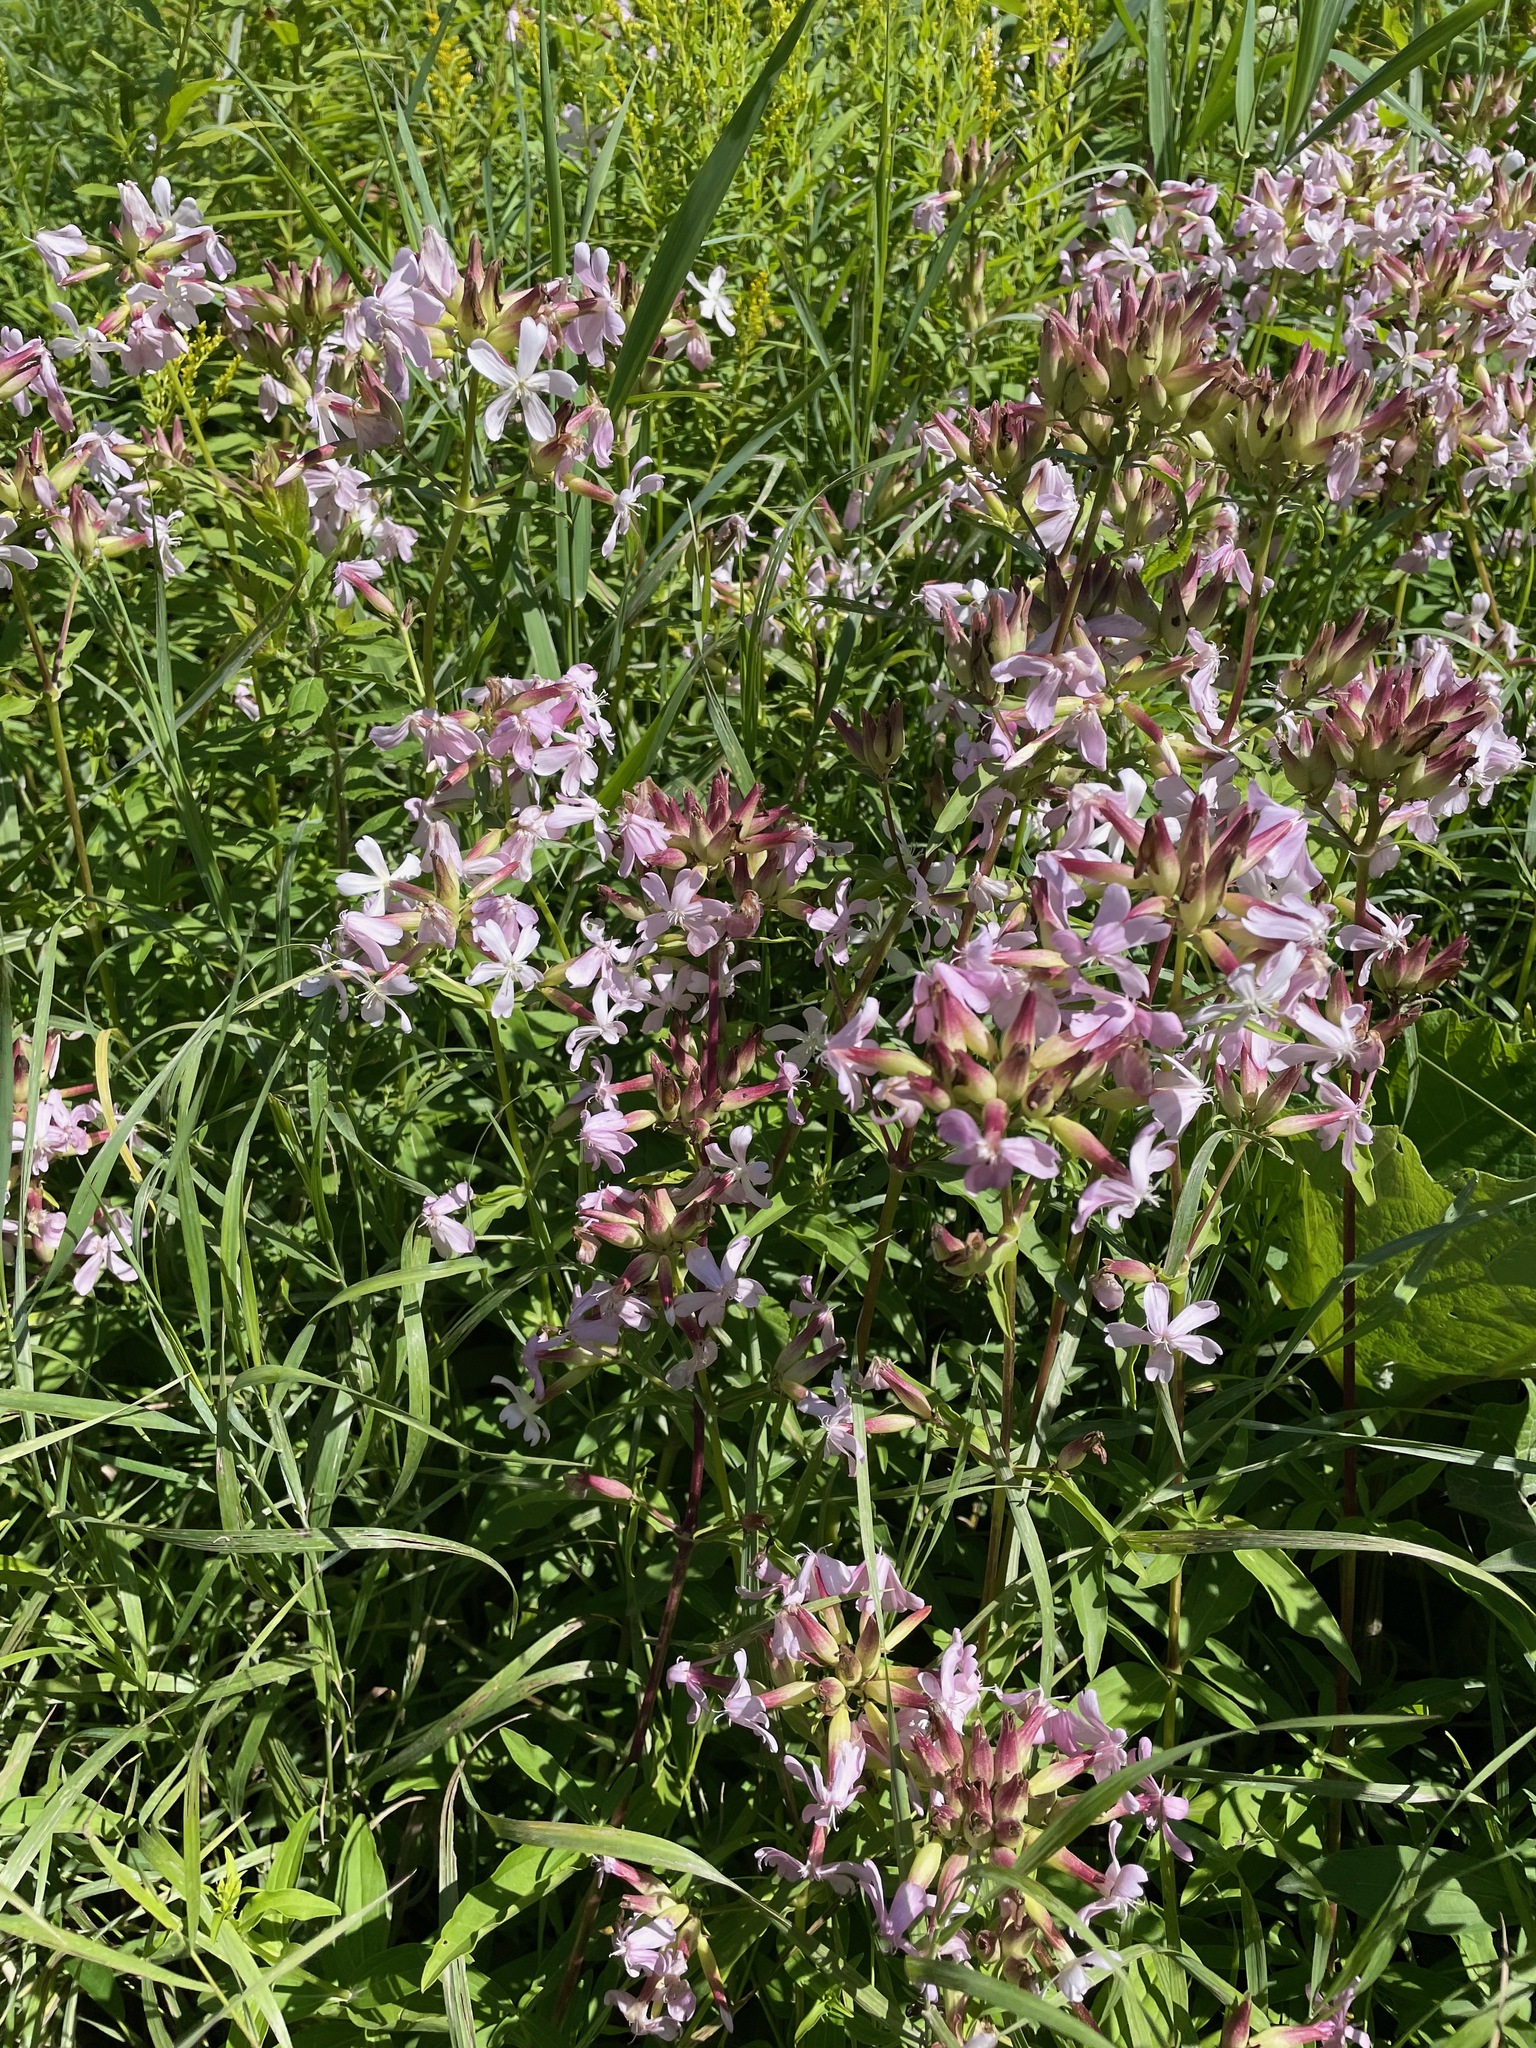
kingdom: Plantae
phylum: Tracheophyta
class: Magnoliopsida
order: Caryophyllales
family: Caryophyllaceae
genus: Saponaria
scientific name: Saponaria officinalis
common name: Soapwort
